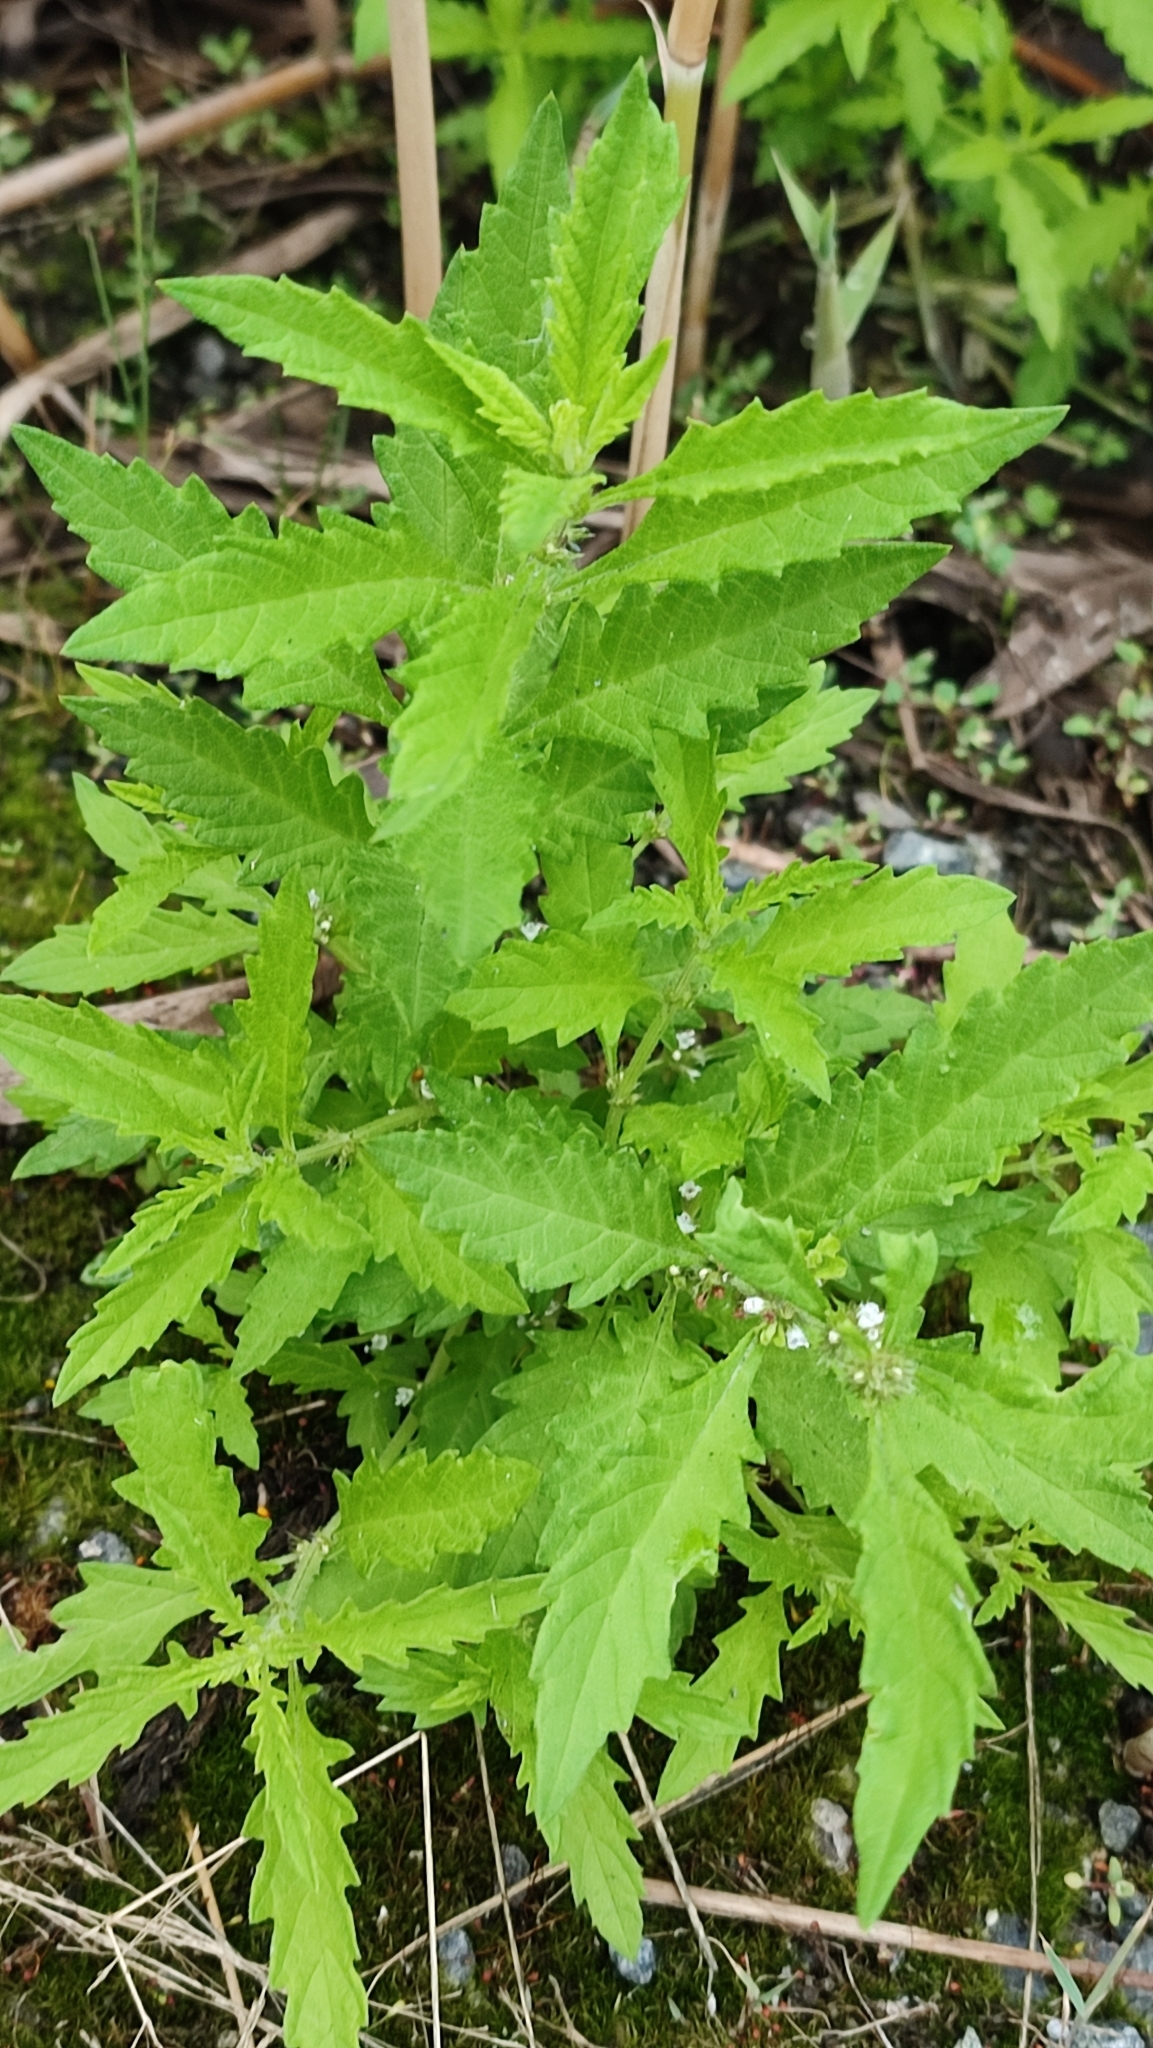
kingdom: Plantae
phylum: Tracheophyta
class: Magnoliopsida
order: Lamiales
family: Lamiaceae
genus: Lycopus
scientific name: Lycopus europaeus
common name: European bugleweed
